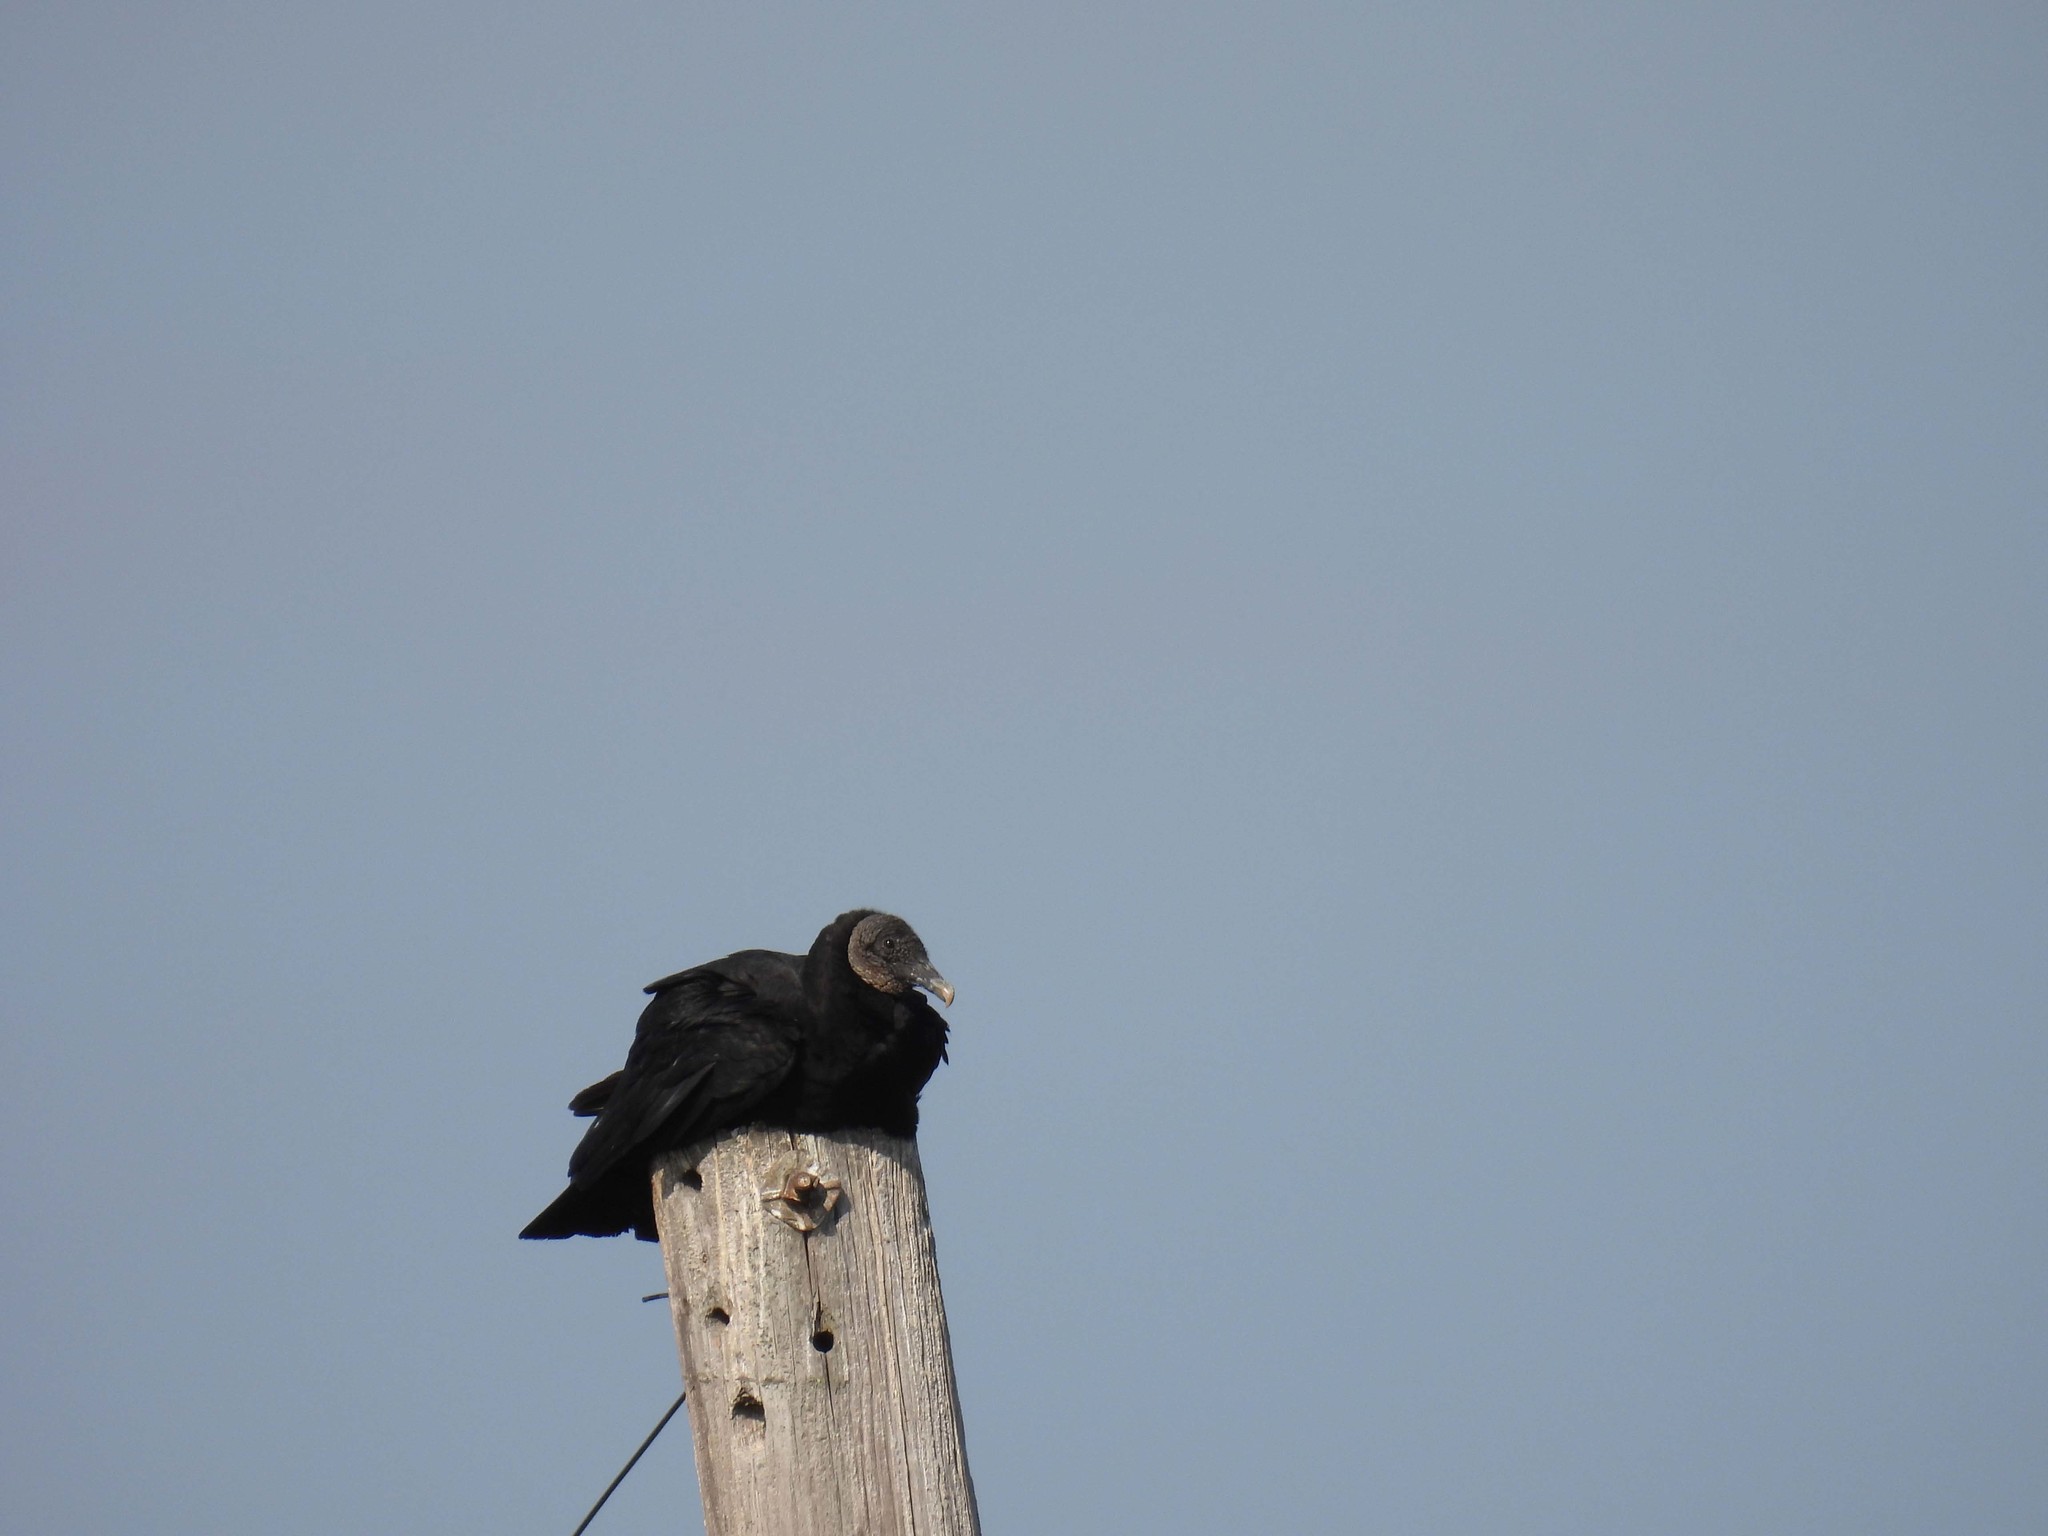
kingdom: Animalia
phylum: Chordata
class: Aves
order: Accipitriformes
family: Cathartidae
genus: Coragyps
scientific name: Coragyps atratus
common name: Black vulture
